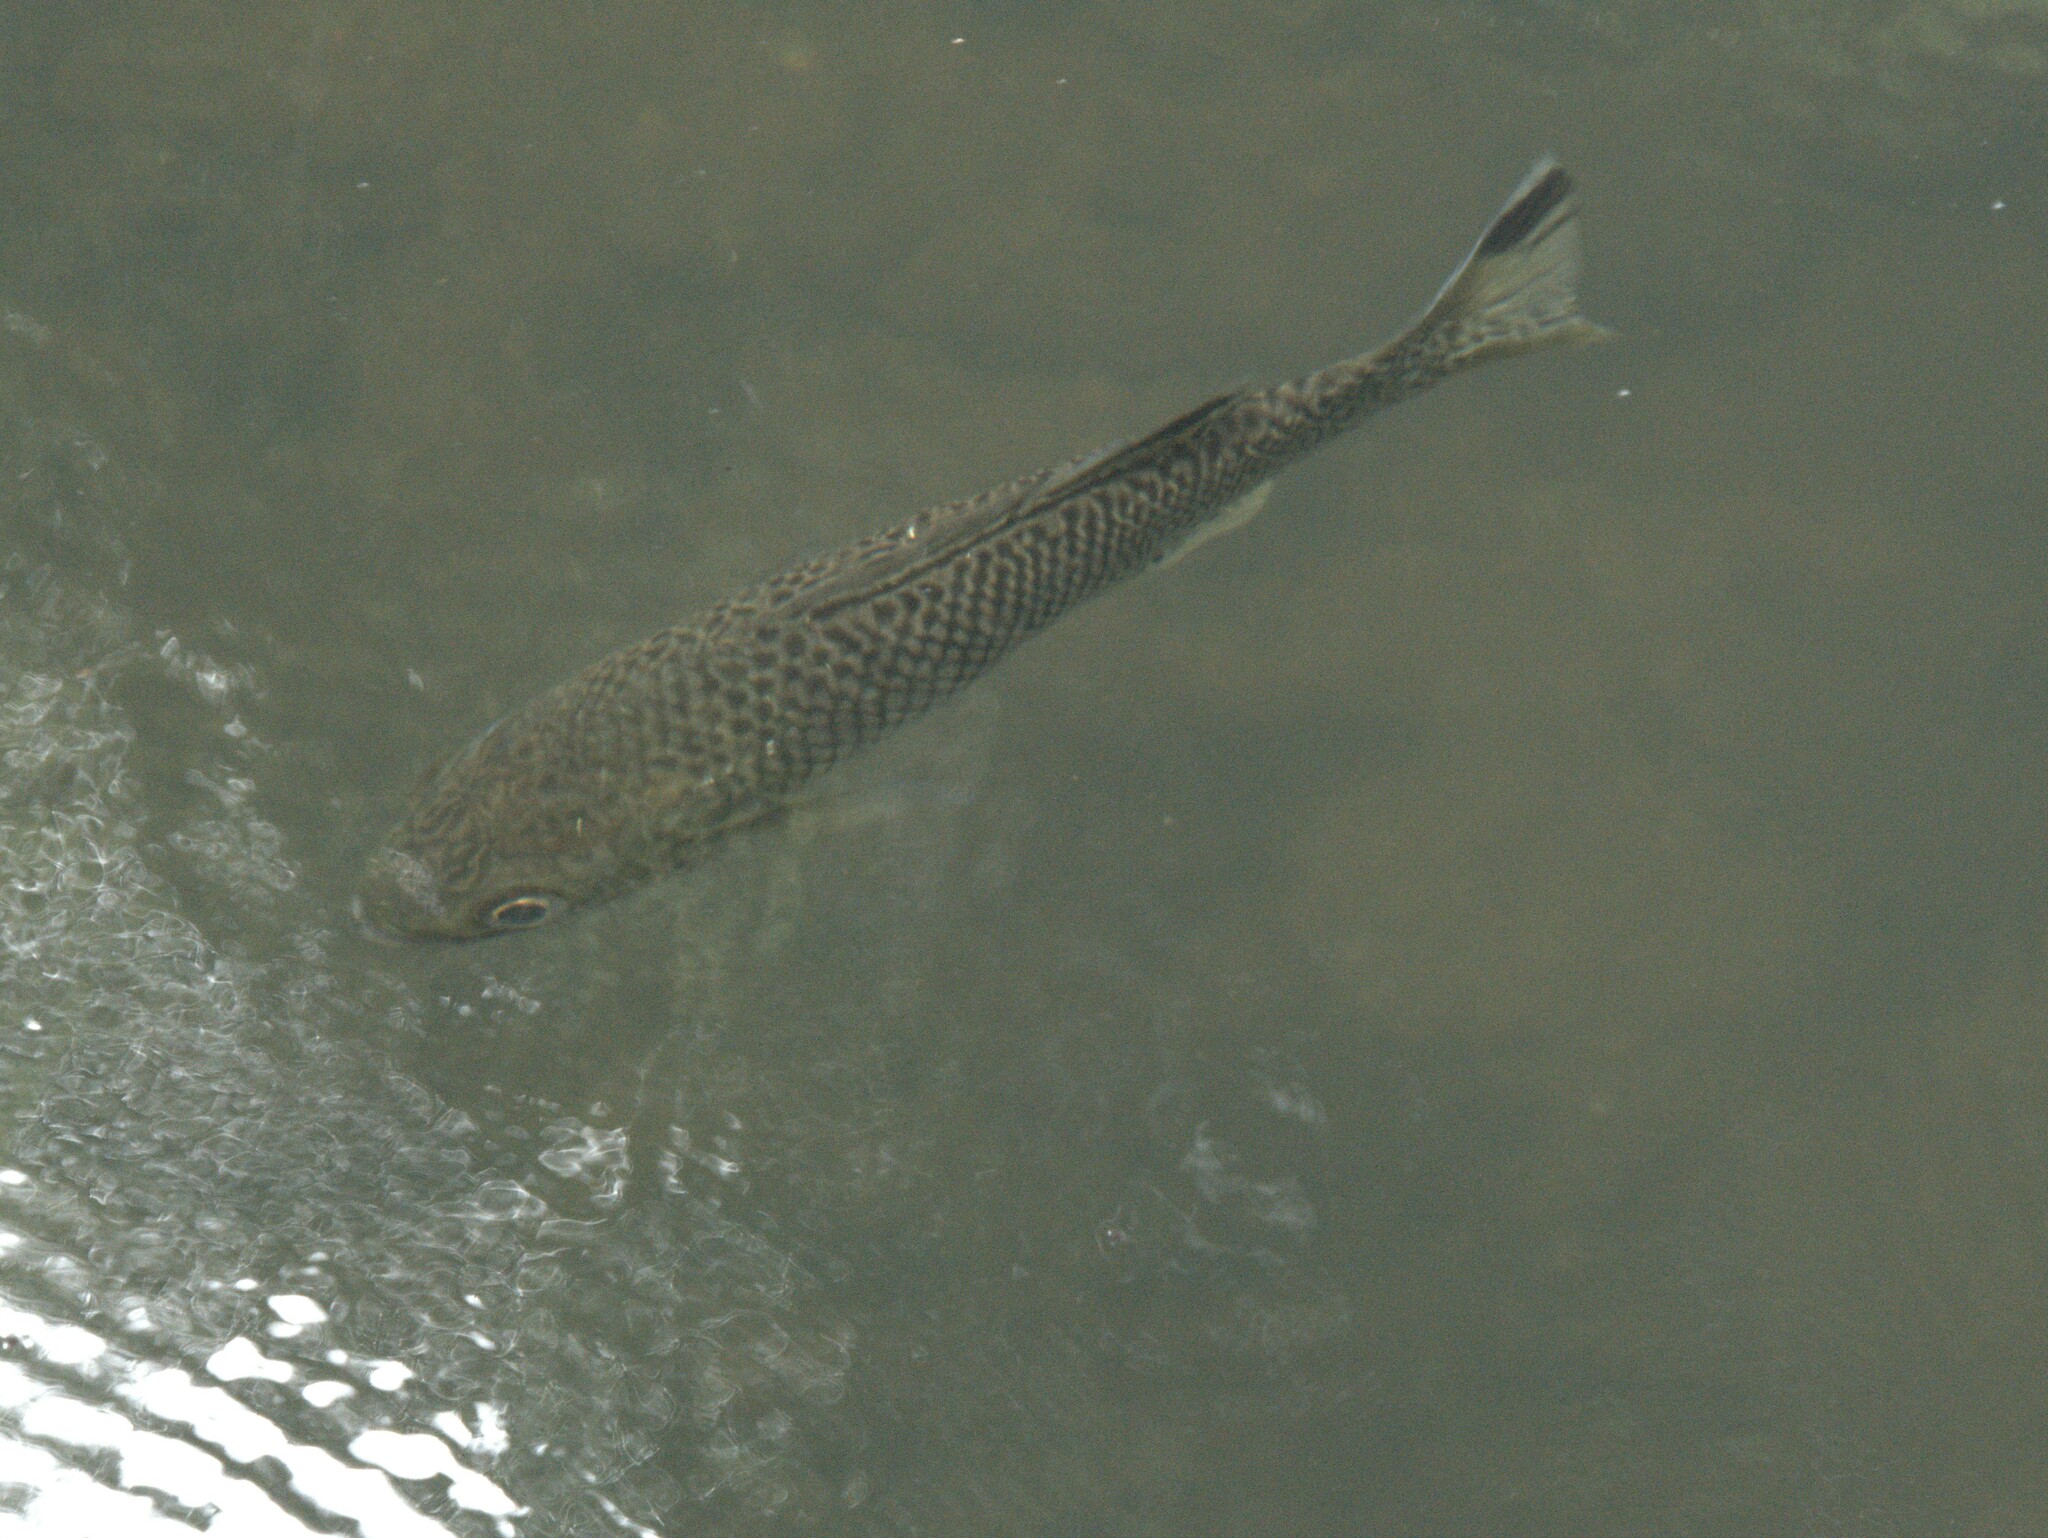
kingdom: Animalia
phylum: Chordata
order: Perciformes
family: Kuhliidae
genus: Kuhlia
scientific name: Kuhlia rupestris
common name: Rock flagtail
